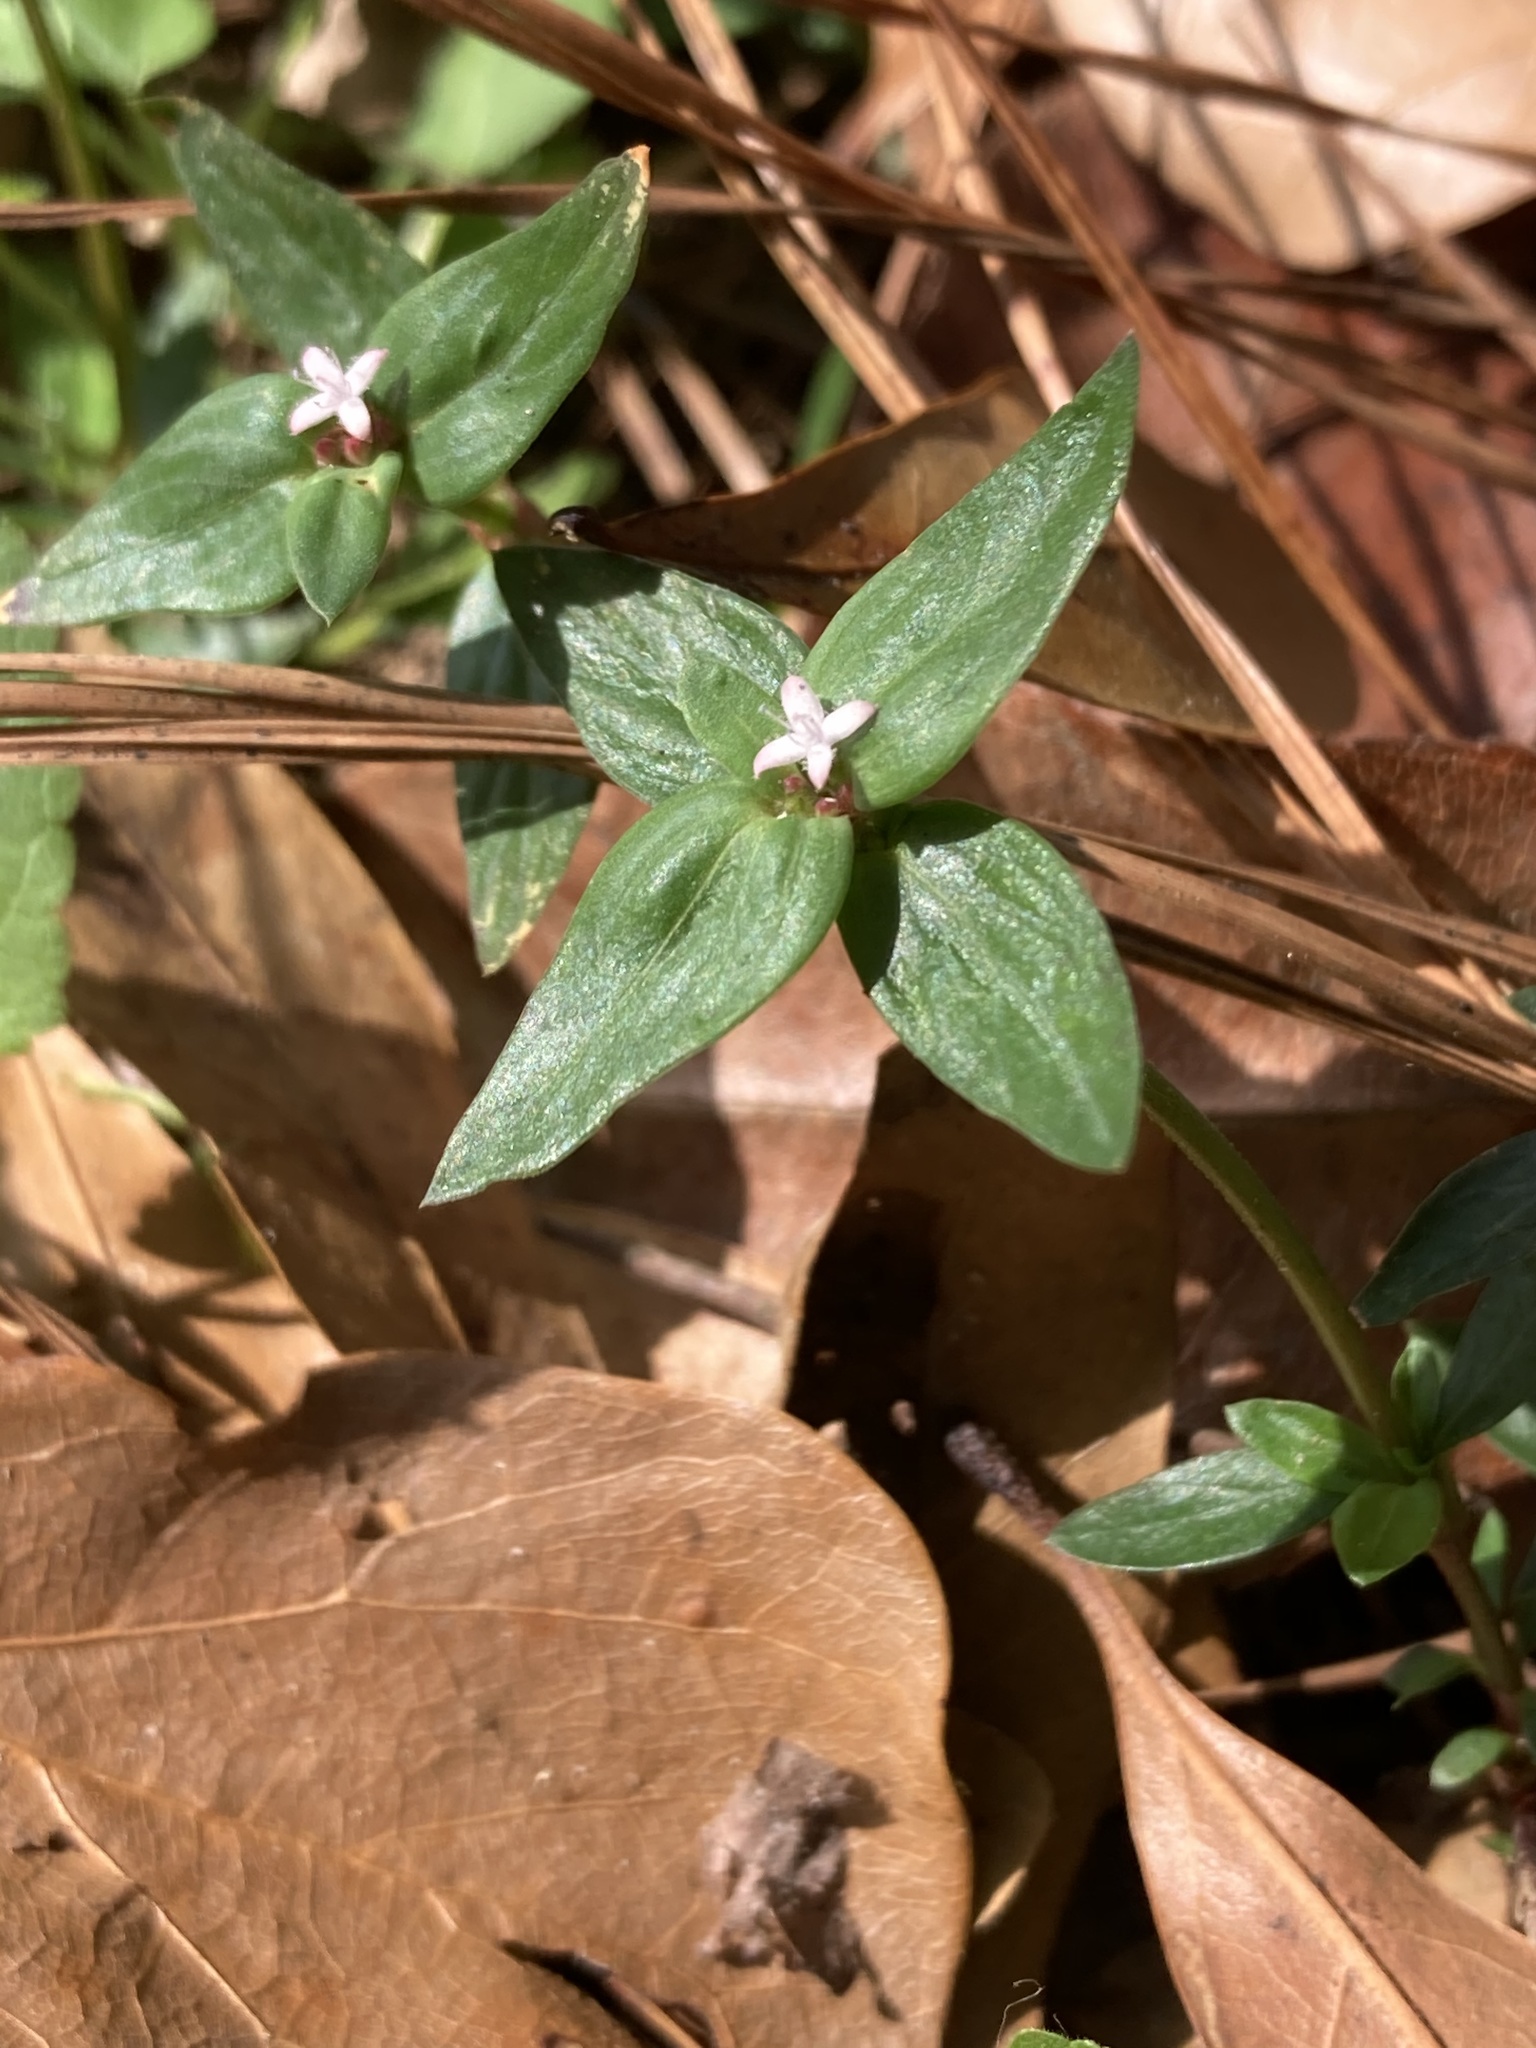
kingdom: Plantae
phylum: Tracheophyta
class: Magnoliopsida
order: Gentianales
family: Rubiaceae
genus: Spermacoce
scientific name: Spermacoce remota
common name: Woodland false buttonweed
